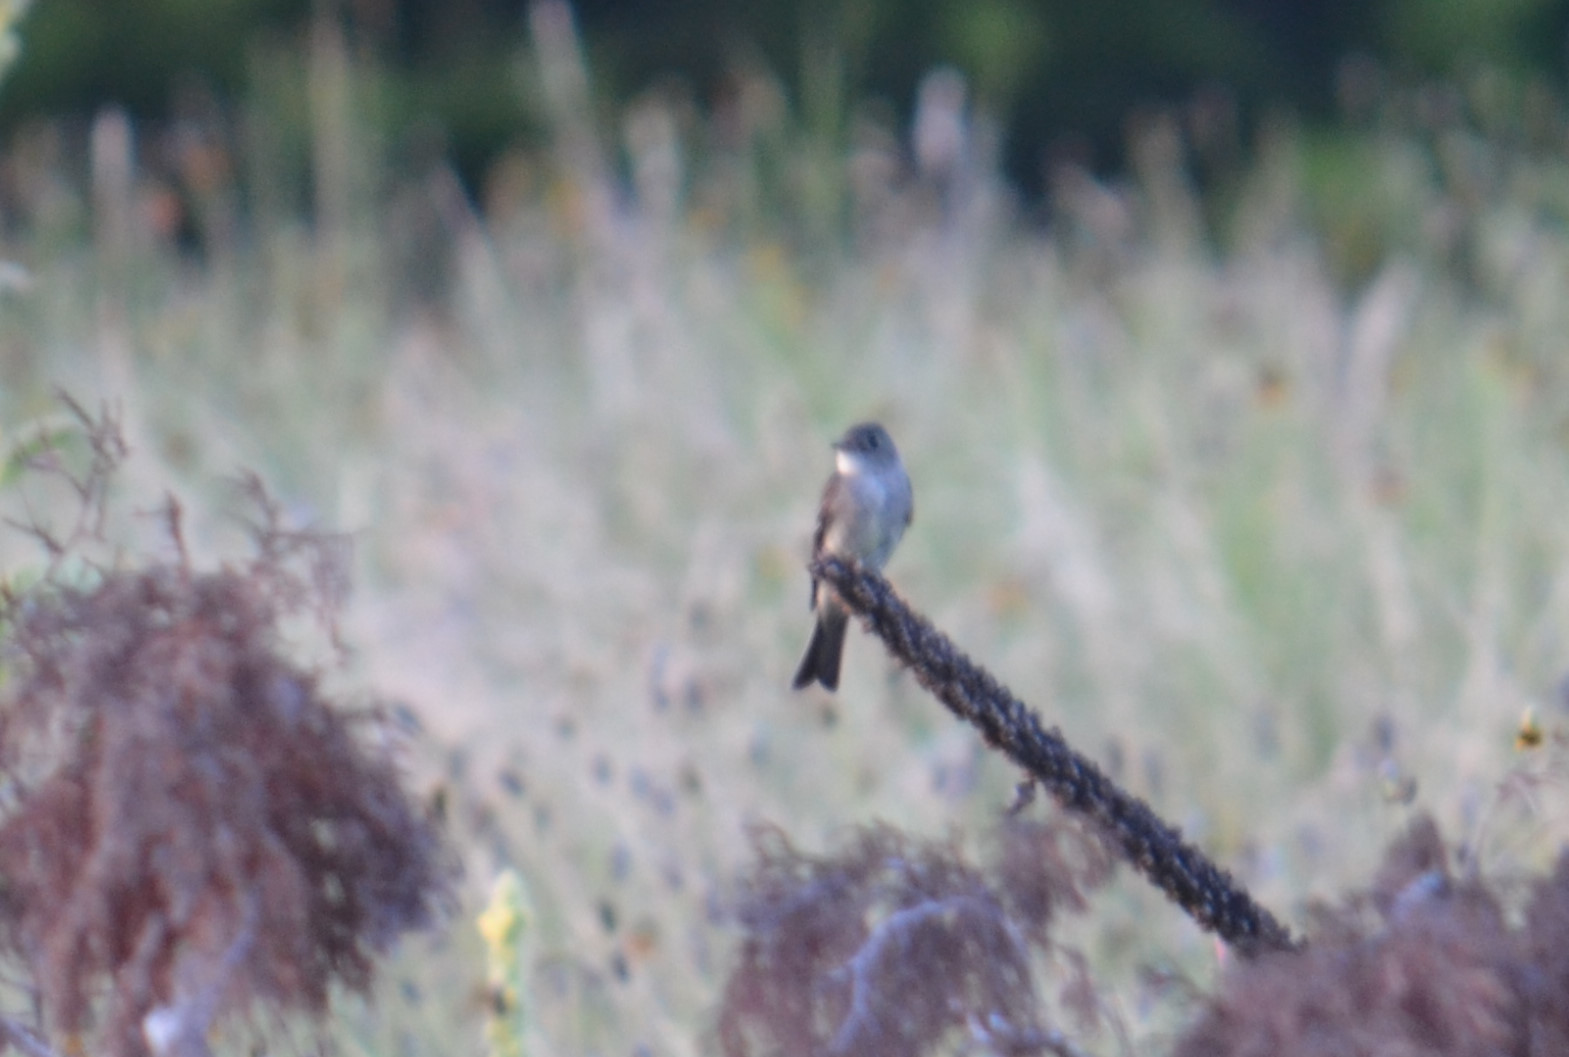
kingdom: Animalia
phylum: Chordata
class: Aves
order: Passeriformes
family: Tyrannidae
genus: Contopus
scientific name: Contopus virens
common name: Eastern wood-pewee
